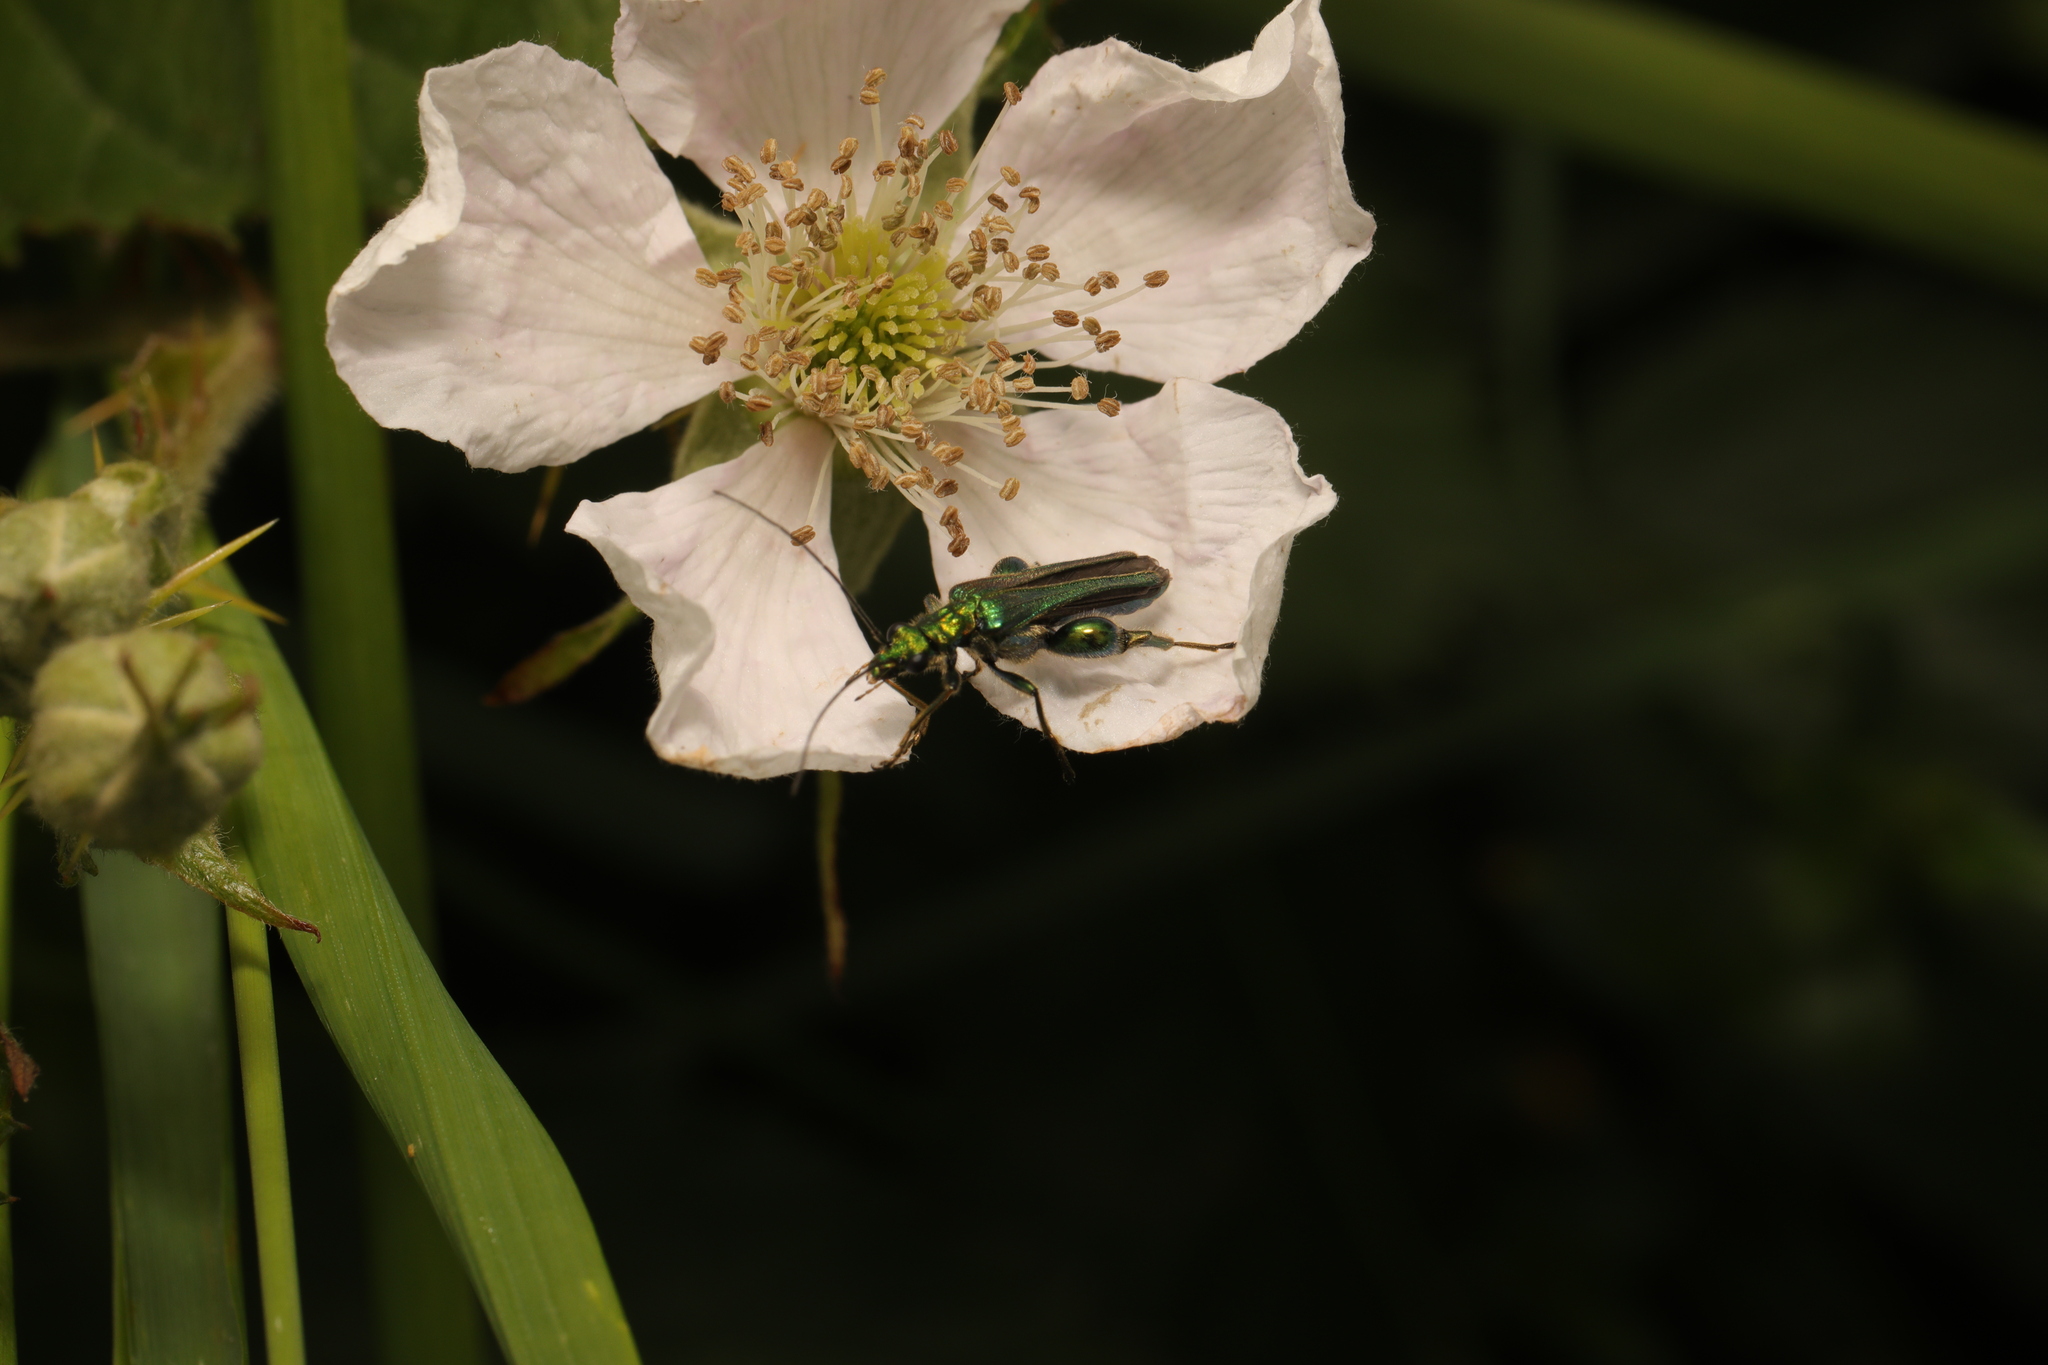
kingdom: Animalia
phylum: Arthropoda
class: Insecta
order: Coleoptera
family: Oedemeridae
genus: Oedemera
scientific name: Oedemera nobilis
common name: Swollen-thighed beetle
